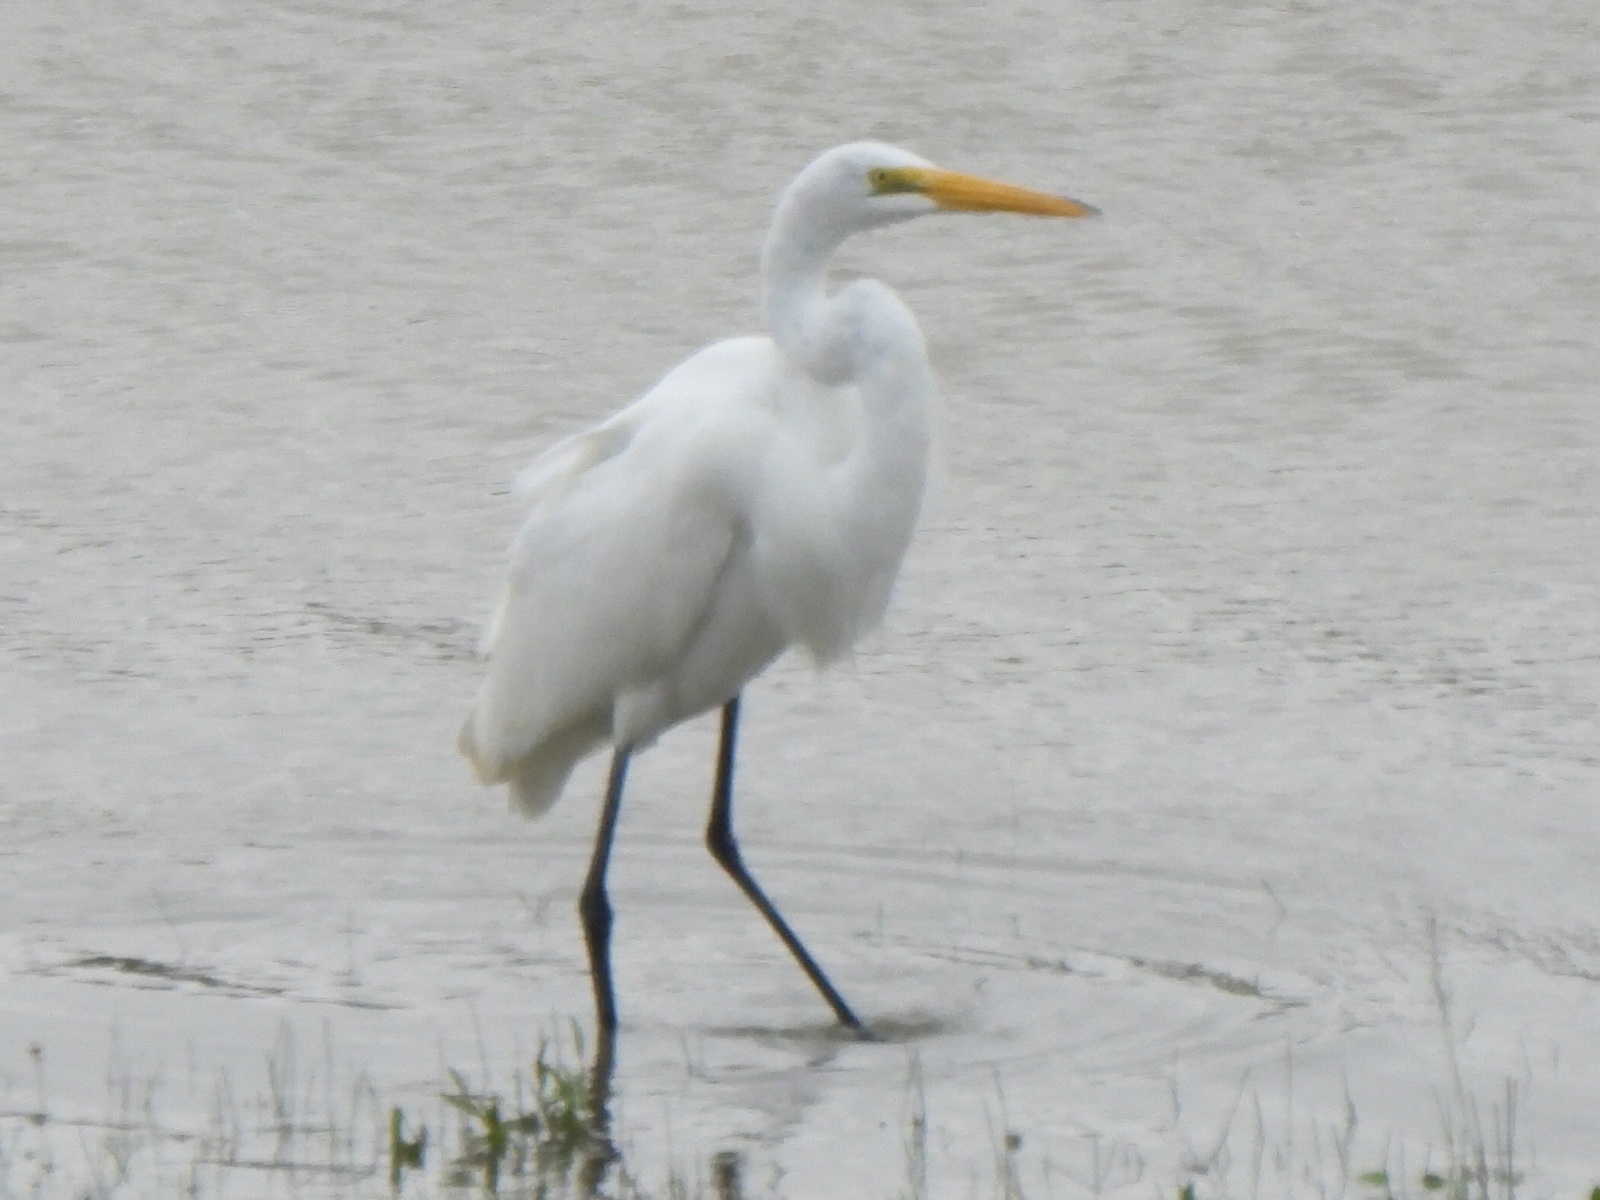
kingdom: Animalia
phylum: Chordata
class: Aves
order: Pelecaniformes
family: Ardeidae
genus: Ardea
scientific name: Ardea alba
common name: Great egret
